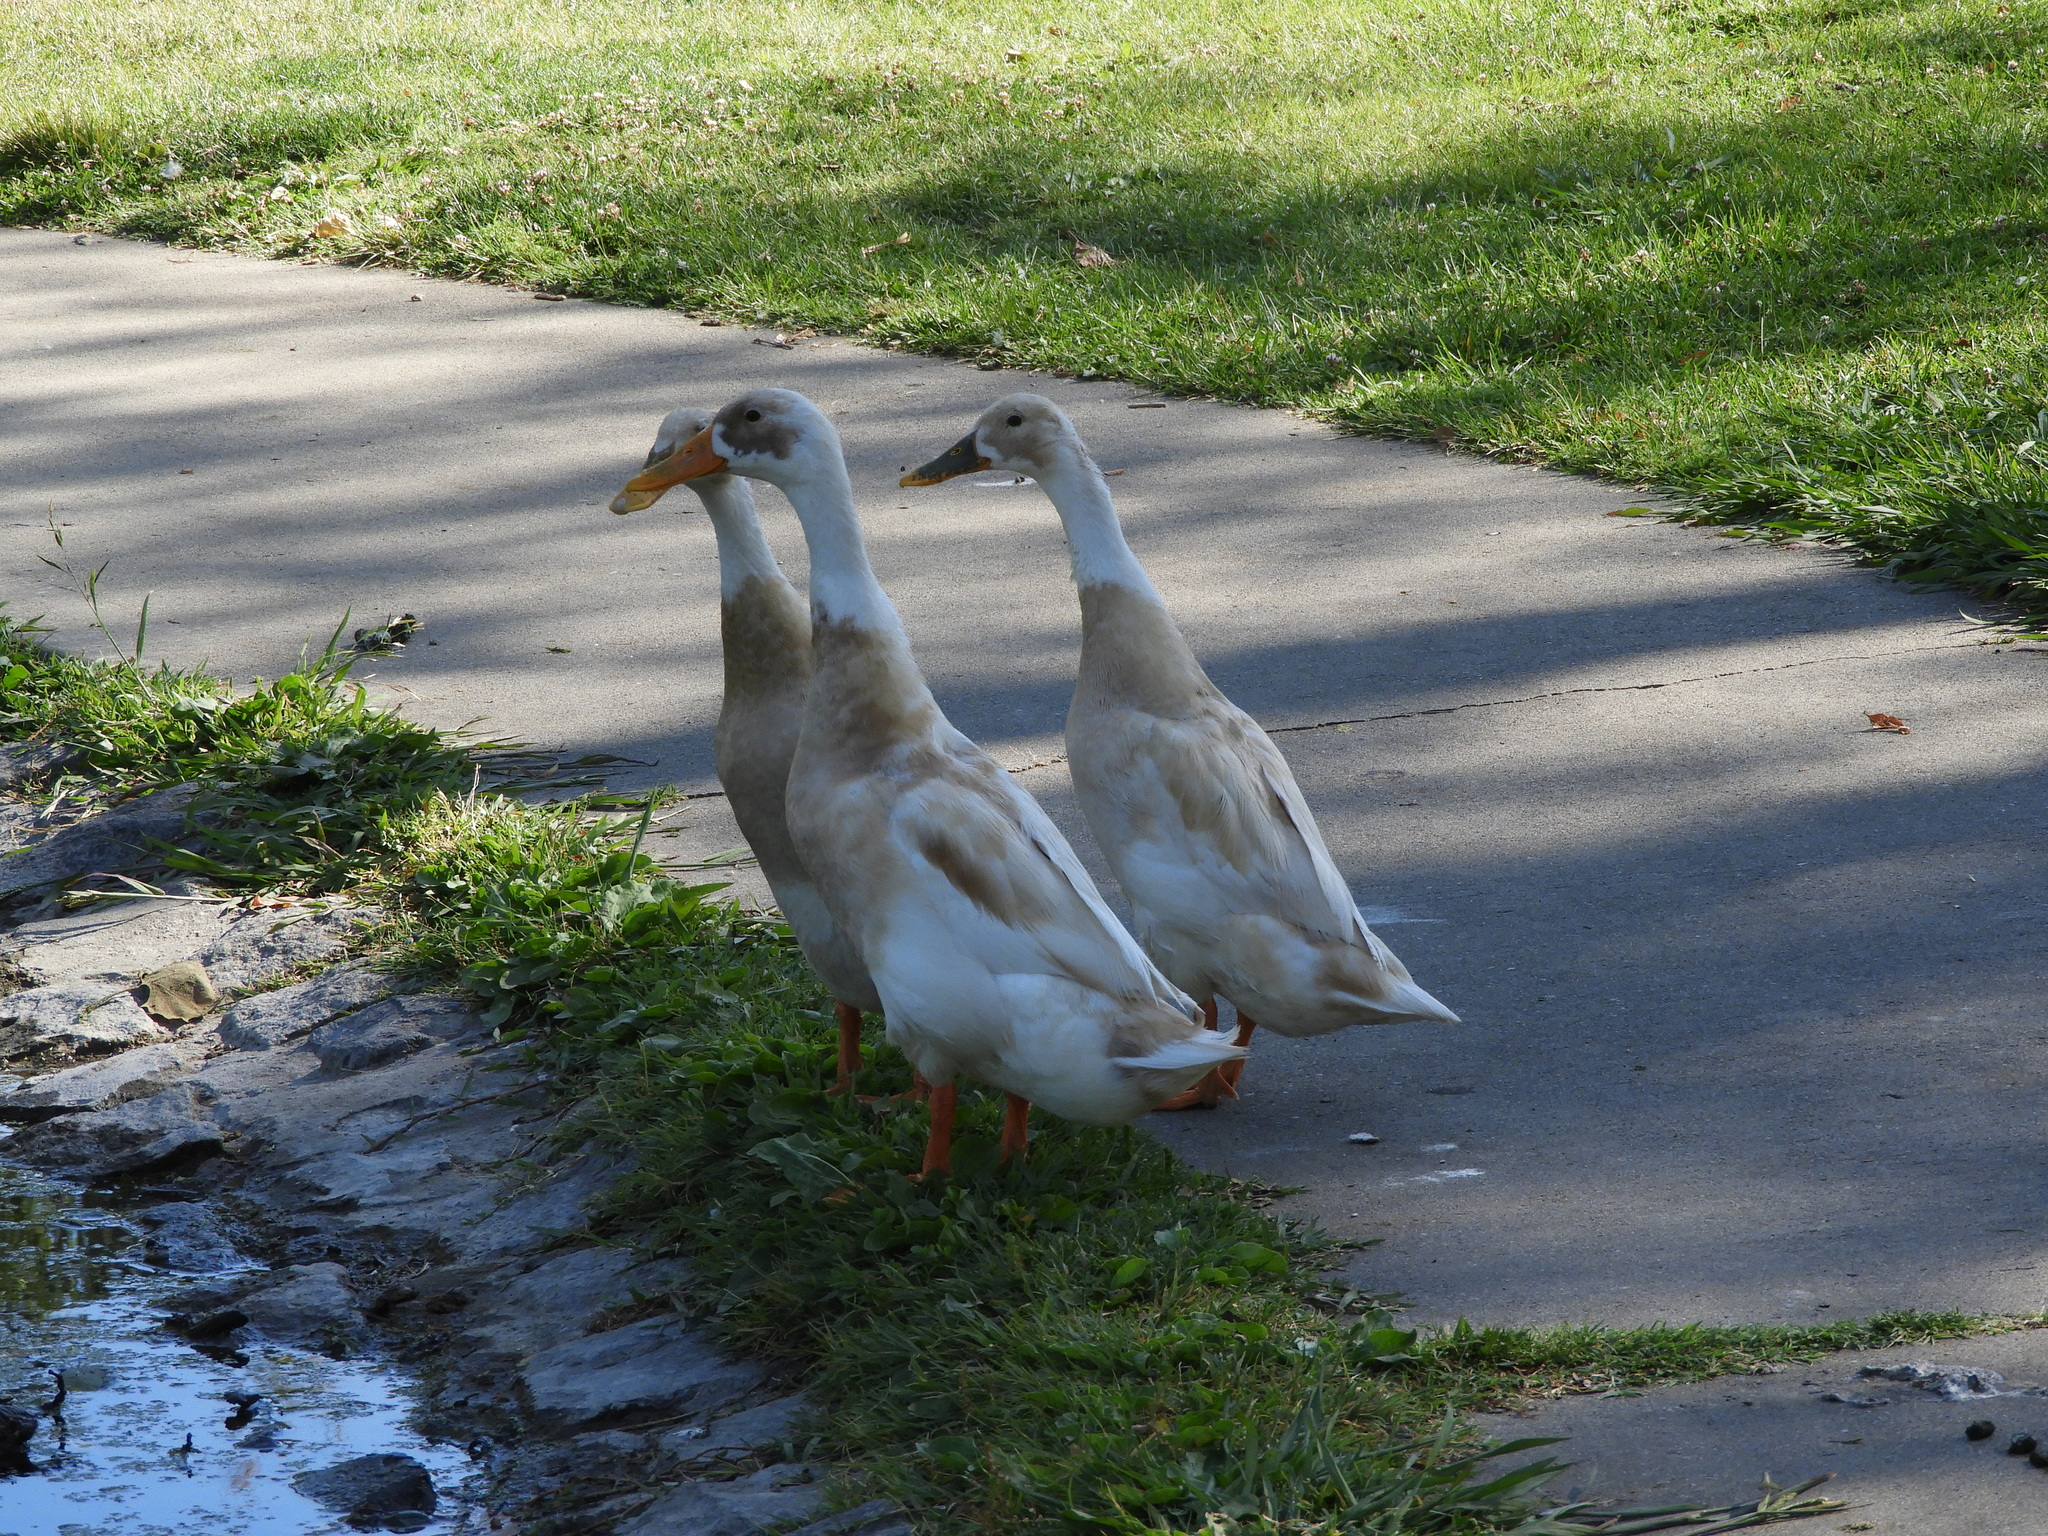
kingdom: Animalia
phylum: Chordata
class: Aves
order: Anseriformes
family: Anatidae
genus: Anas
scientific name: Anas platyrhynchos
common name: Mallard
